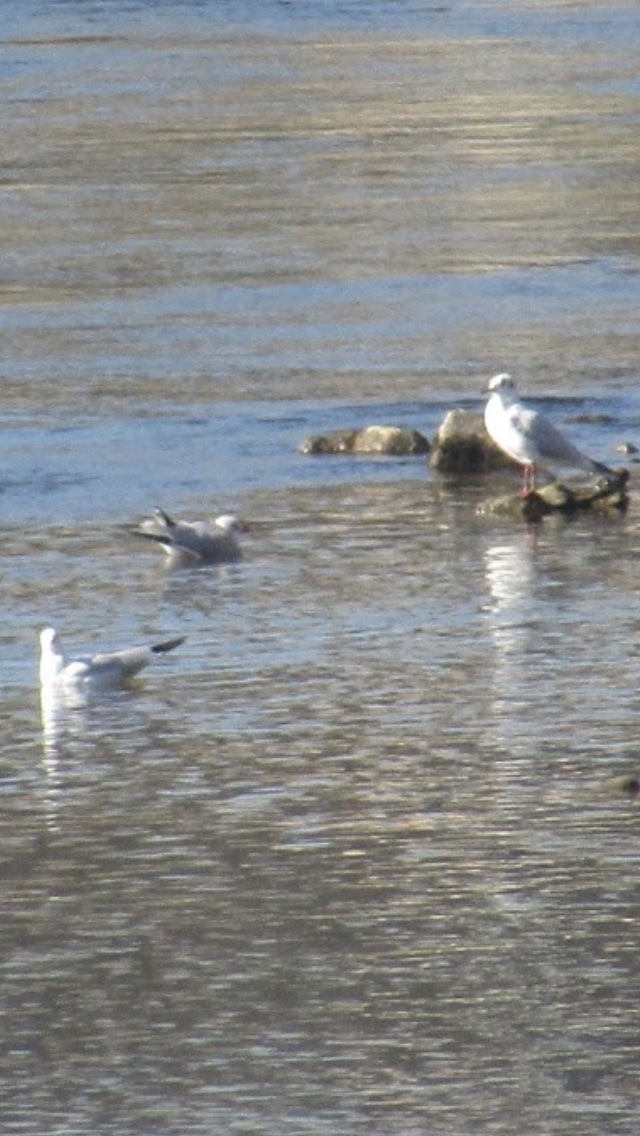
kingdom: Animalia
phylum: Chordata
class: Aves
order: Charadriiformes
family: Laridae
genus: Chroicocephalus
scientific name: Chroicocephalus ridibundus
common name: Black-headed gull
